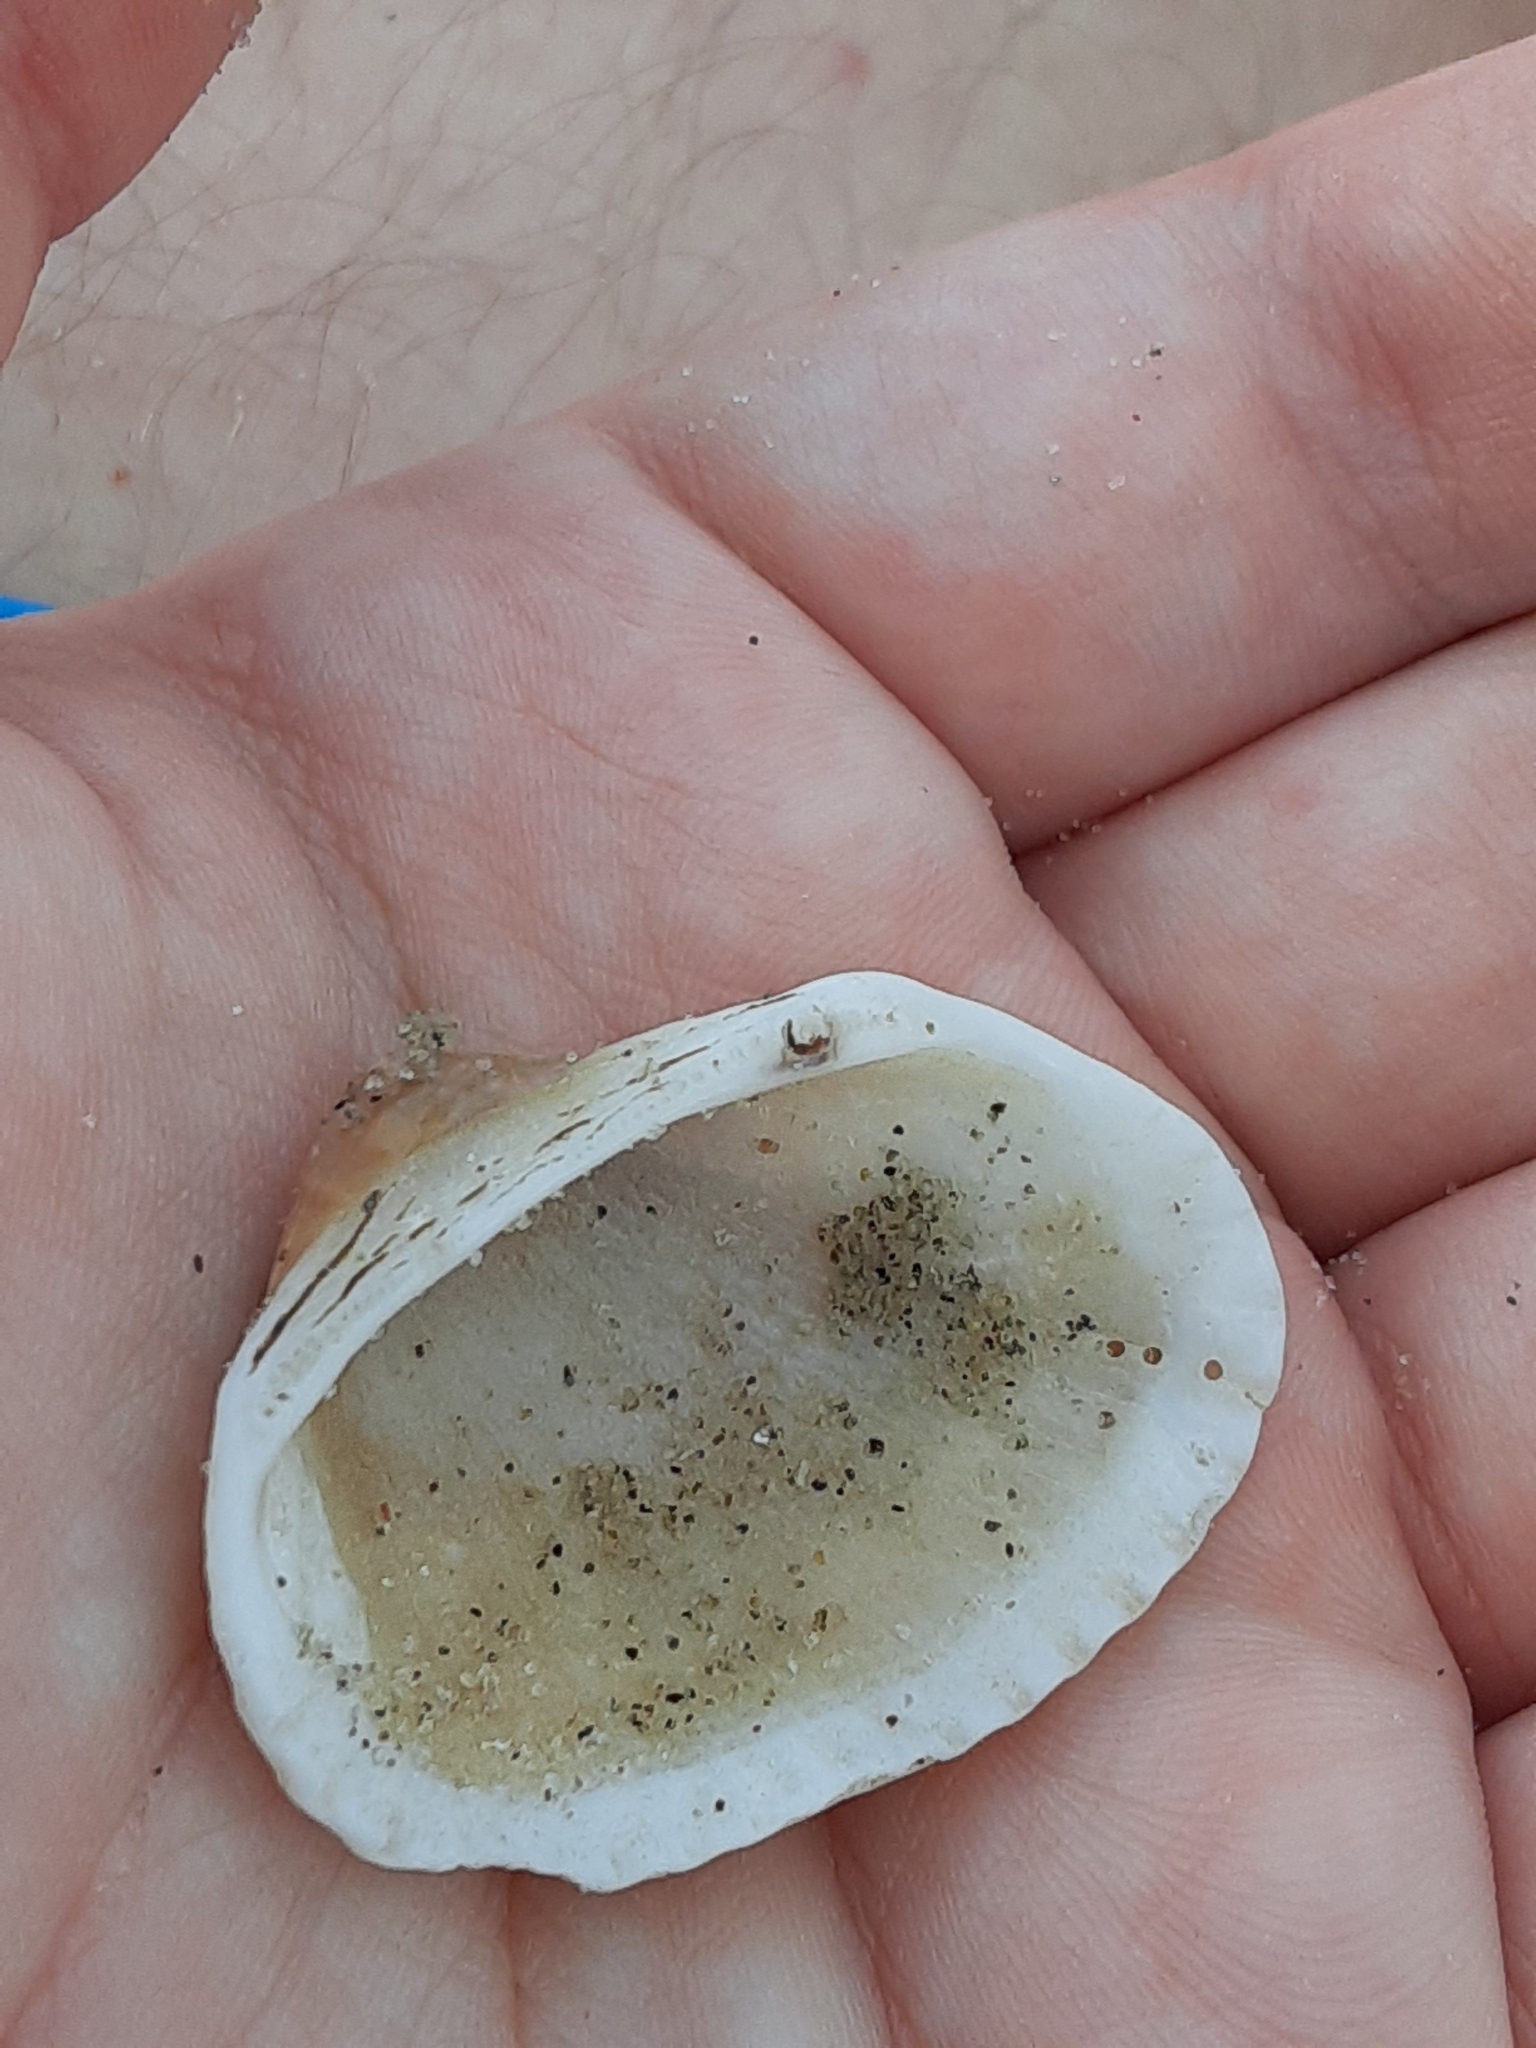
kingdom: Animalia
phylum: Mollusca
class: Bivalvia
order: Arcida
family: Arcidae
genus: Anadara
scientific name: Anadara transversa
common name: Transverse ark
